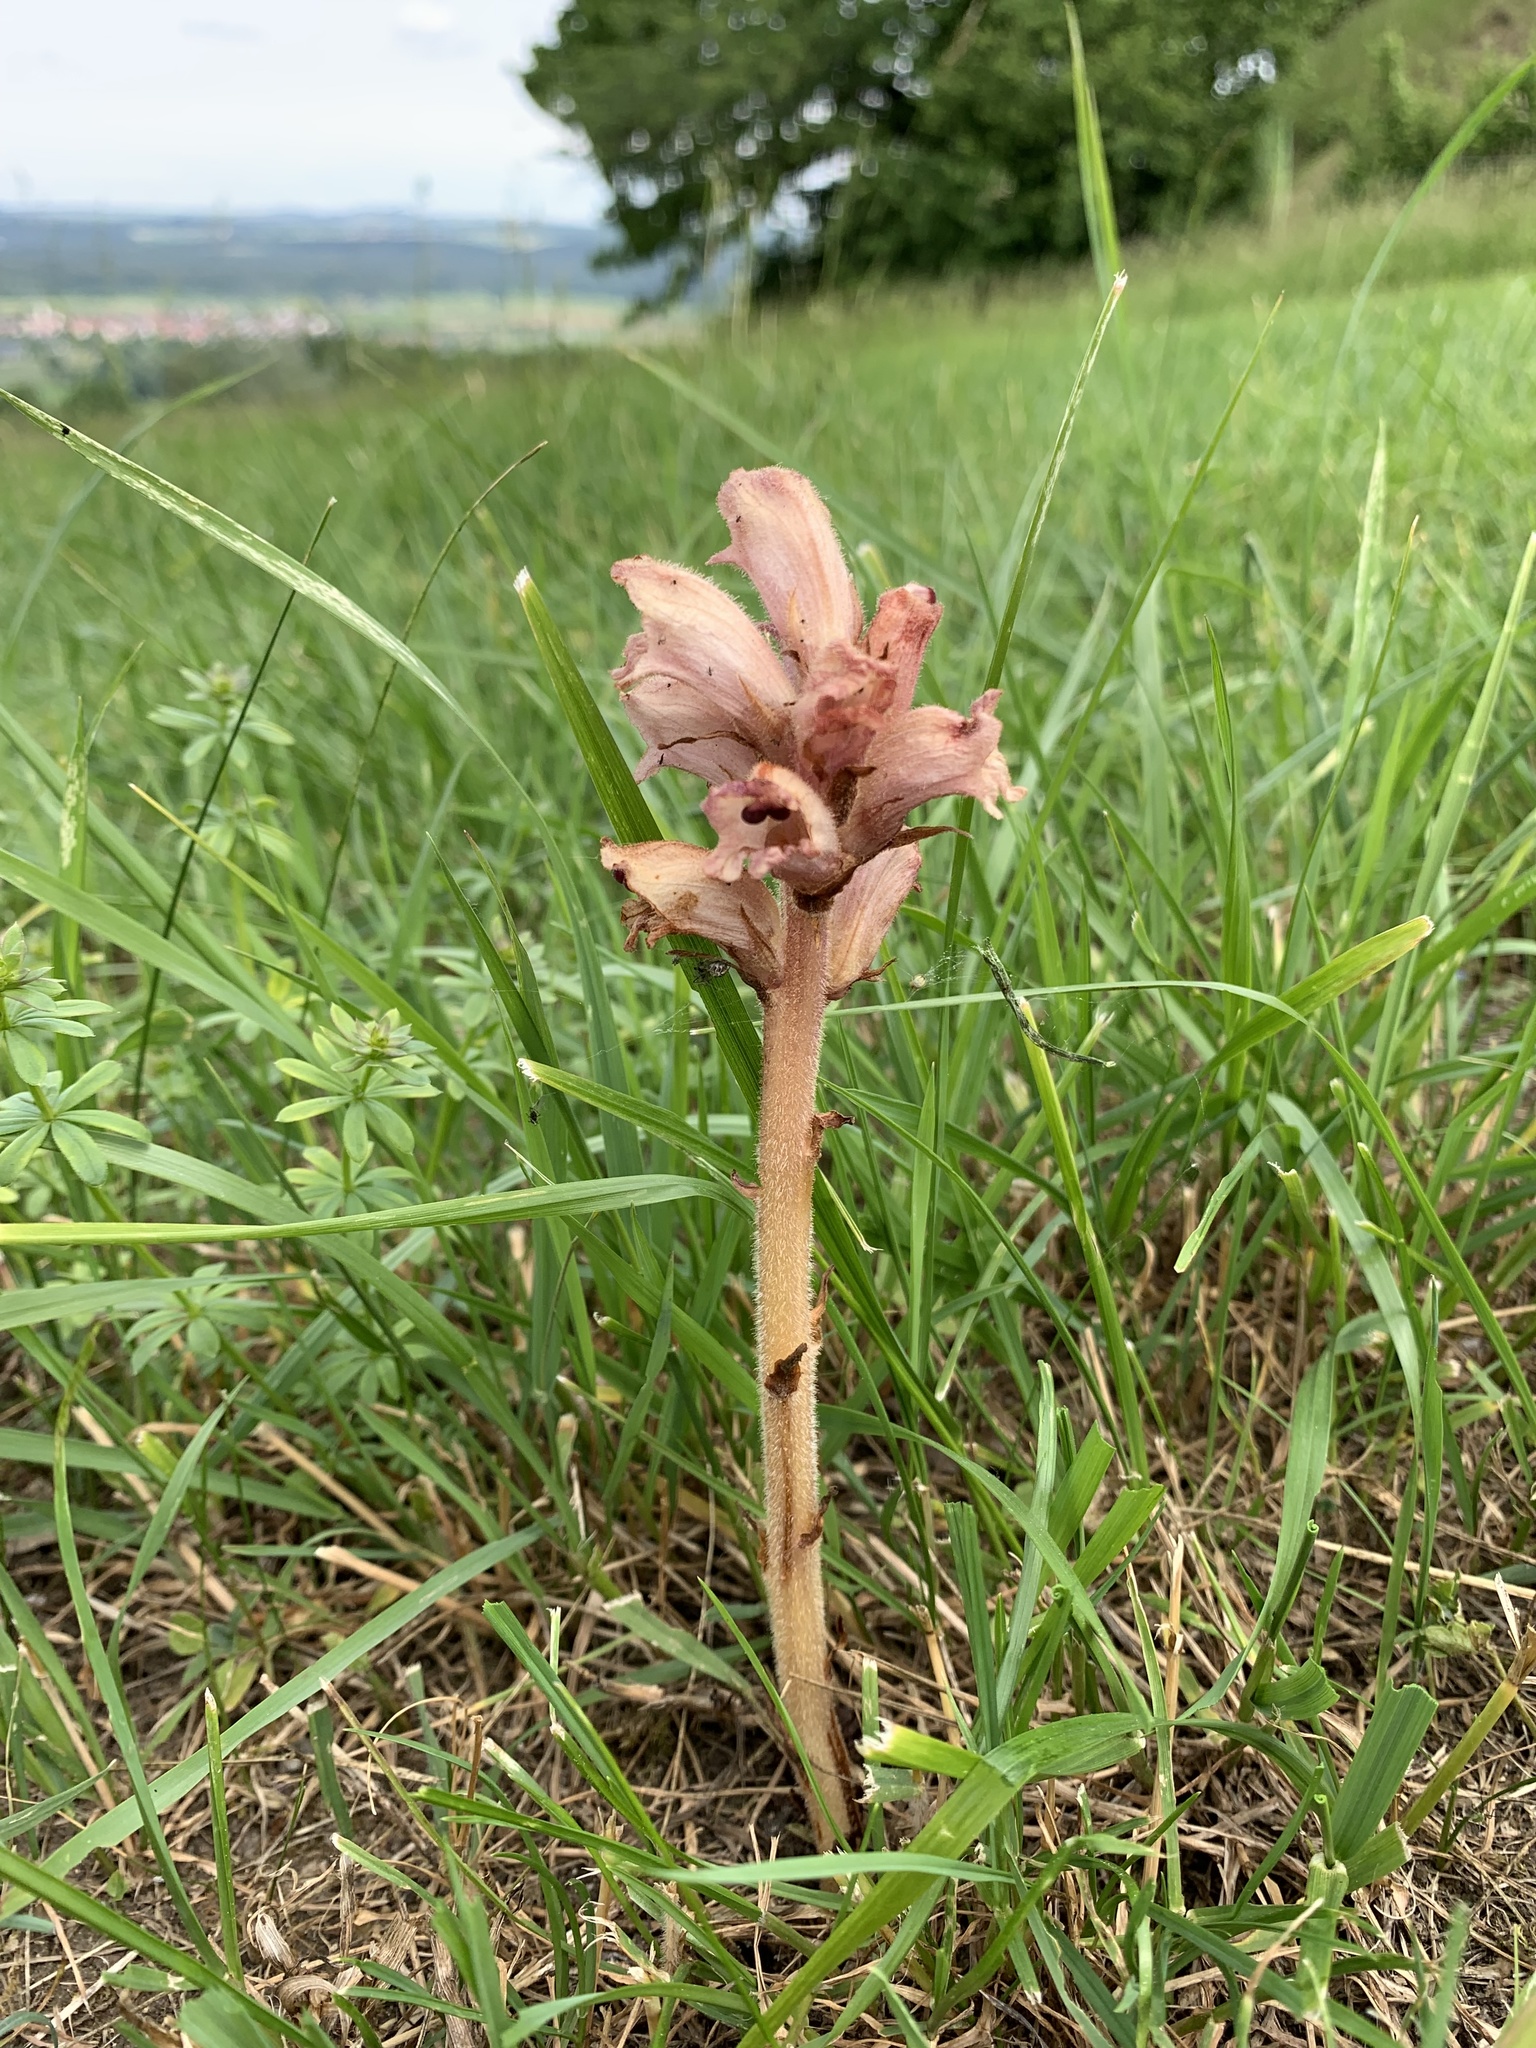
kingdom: Plantae
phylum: Tracheophyta
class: Magnoliopsida
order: Lamiales
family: Orobanchaceae
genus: Orobanche
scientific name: Orobanche caryophyllacea
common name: Bedstraw broomrape
